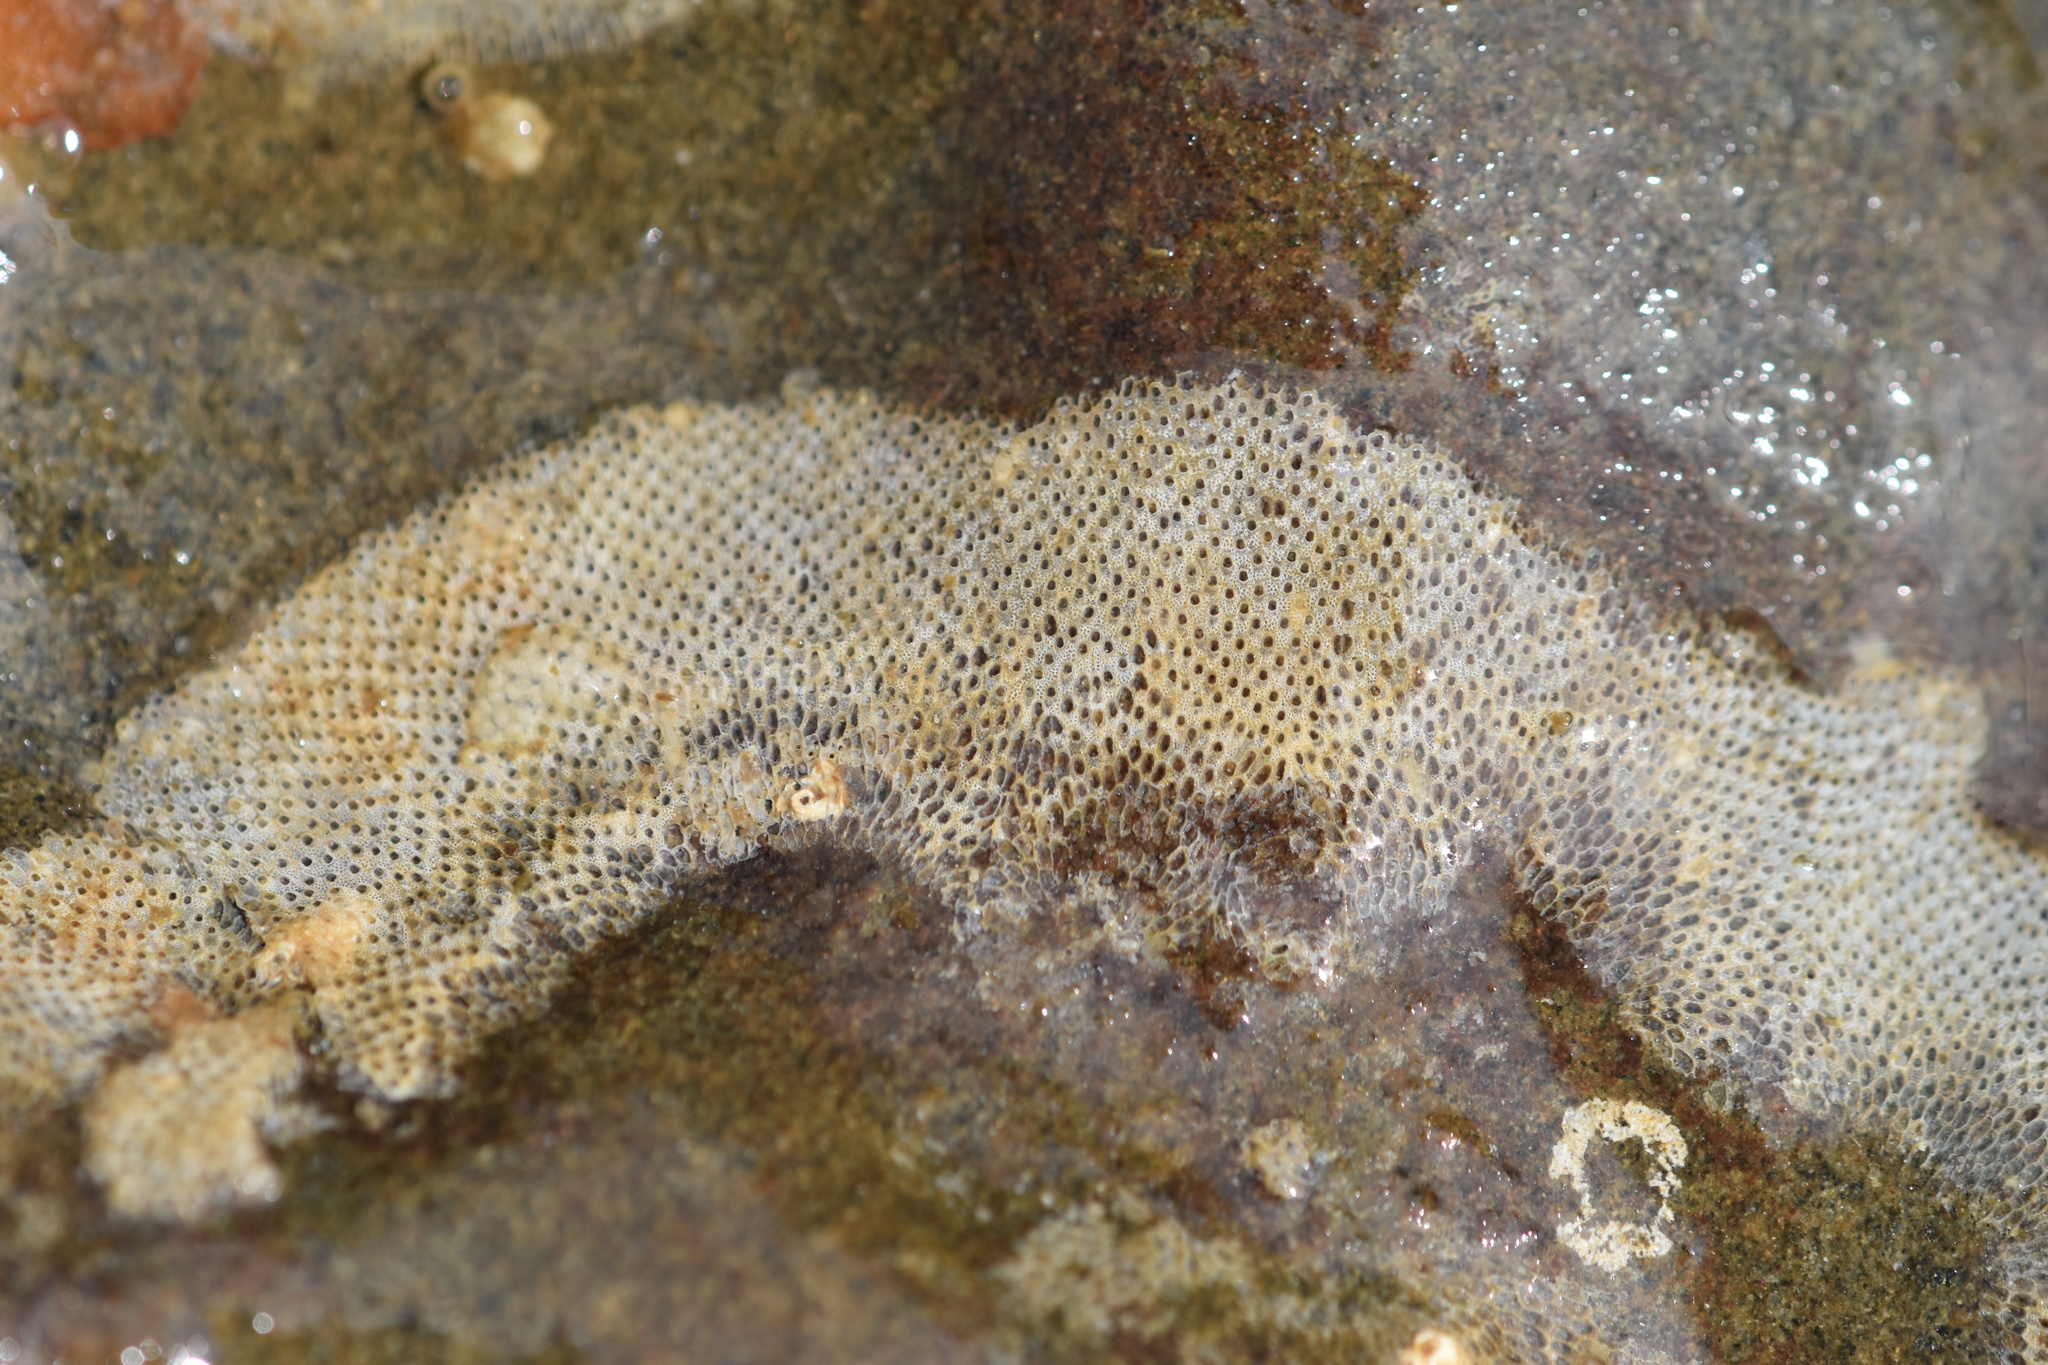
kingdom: Animalia
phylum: Bryozoa
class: Gymnolaemata
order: Cheilostomatida
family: Cryptosulidae
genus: Cryptosula
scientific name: Cryptosula pallasiana
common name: Red crust
